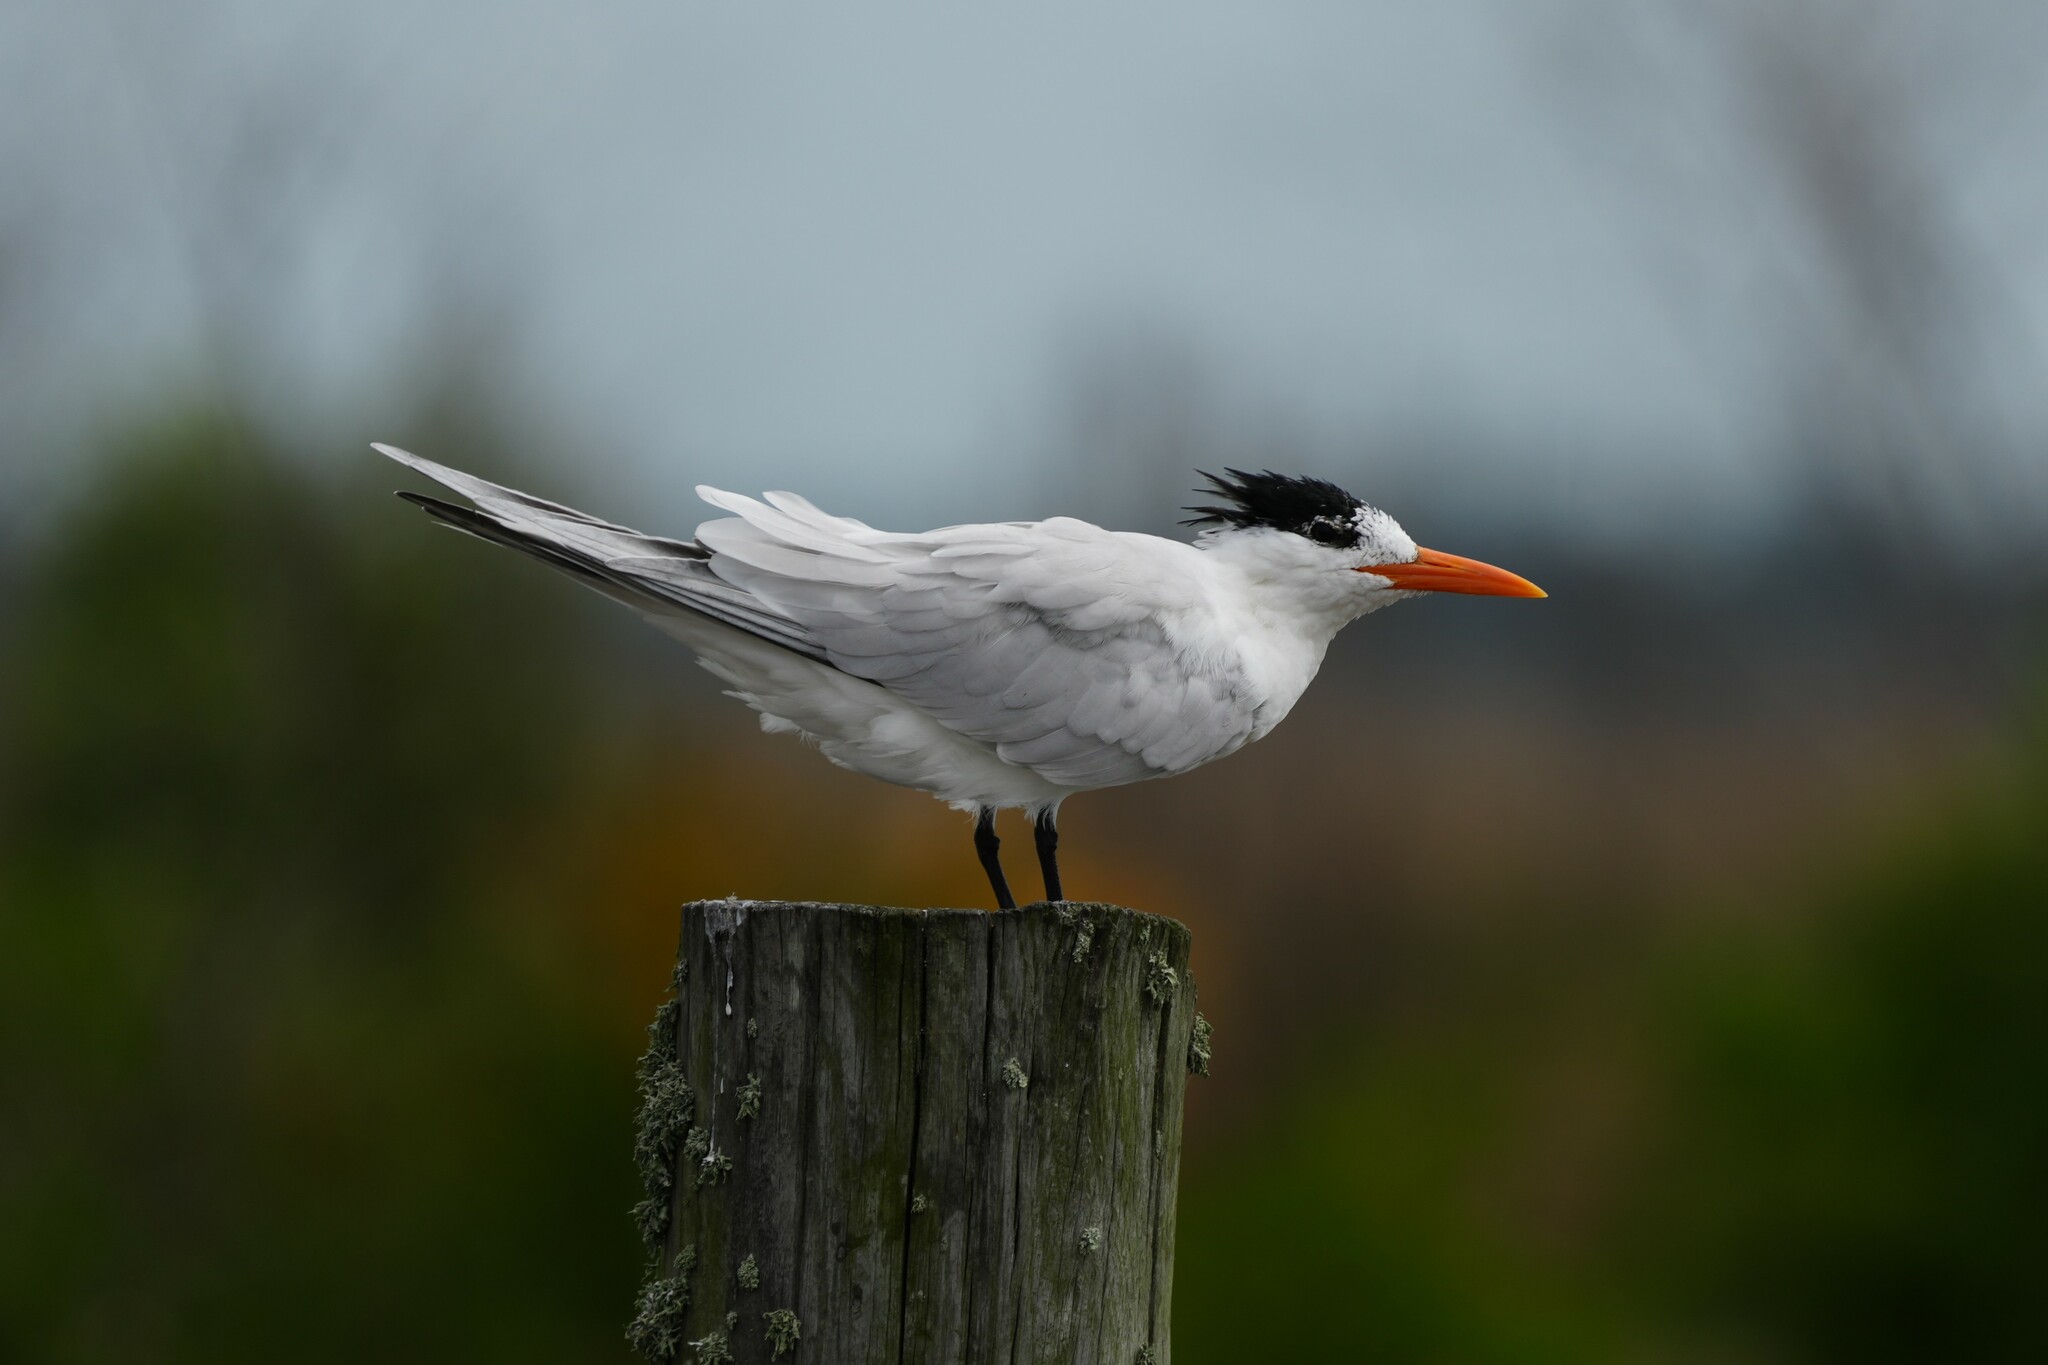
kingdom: Animalia
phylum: Chordata
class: Aves
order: Charadriiformes
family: Laridae
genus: Thalasseus
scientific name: Thalasseus maximus
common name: Royal tern
